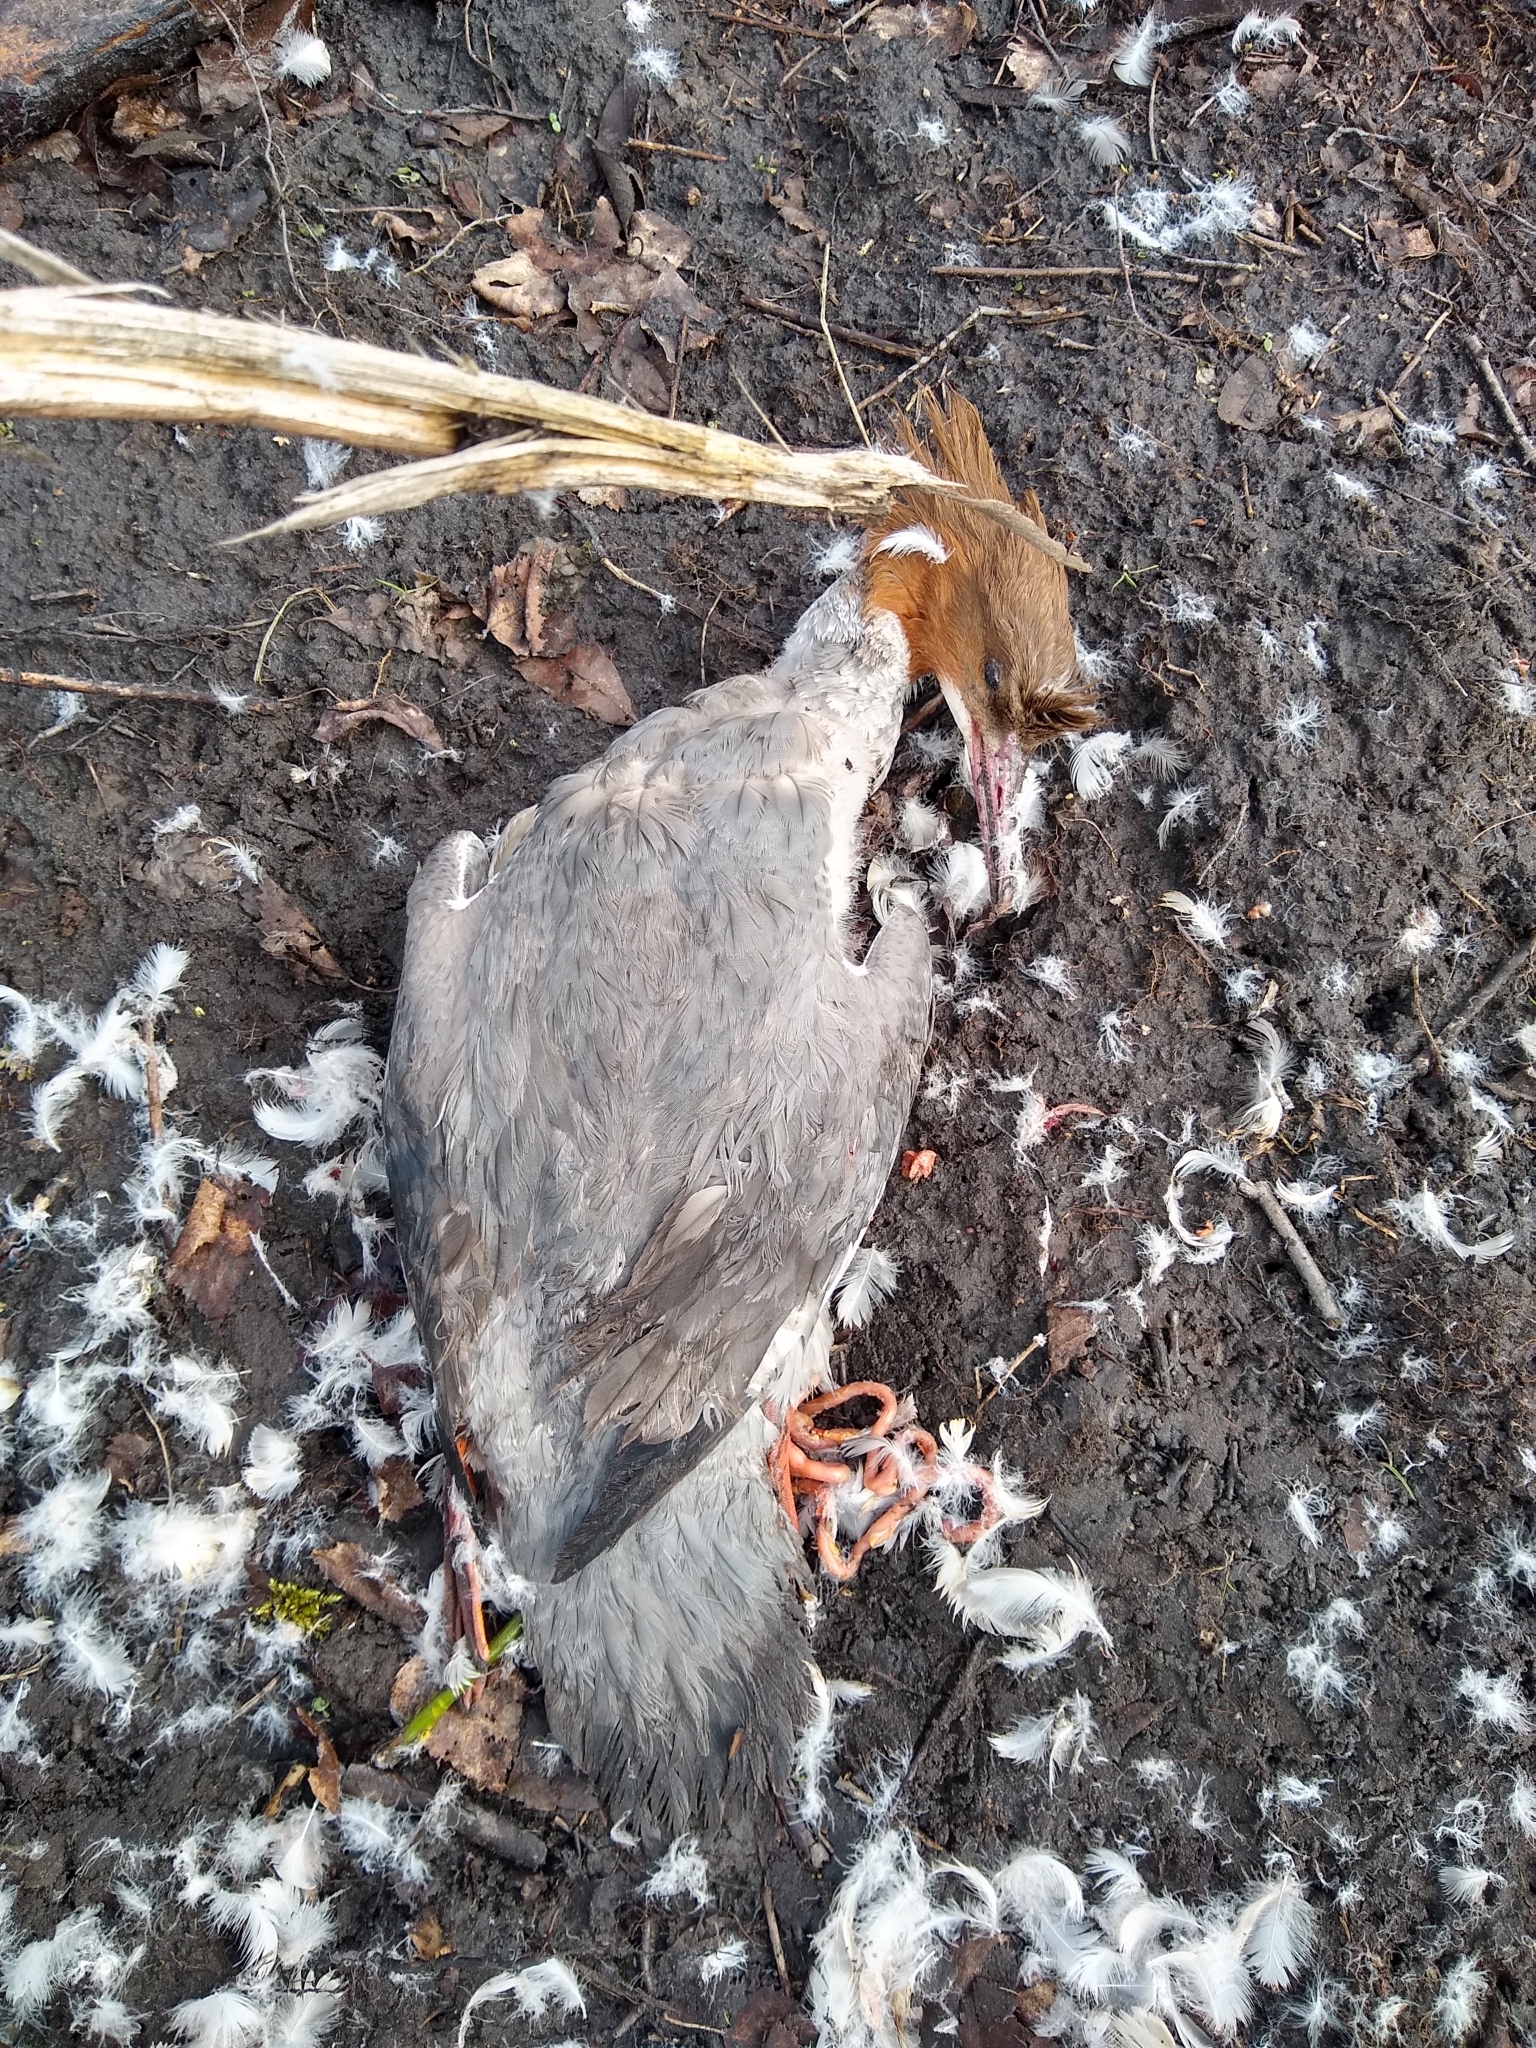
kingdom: Animalia
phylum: Chordata
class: Aves
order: Anseriformes
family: Anatidae
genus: Mergus
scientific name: Mergus merganser
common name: Common merganser
